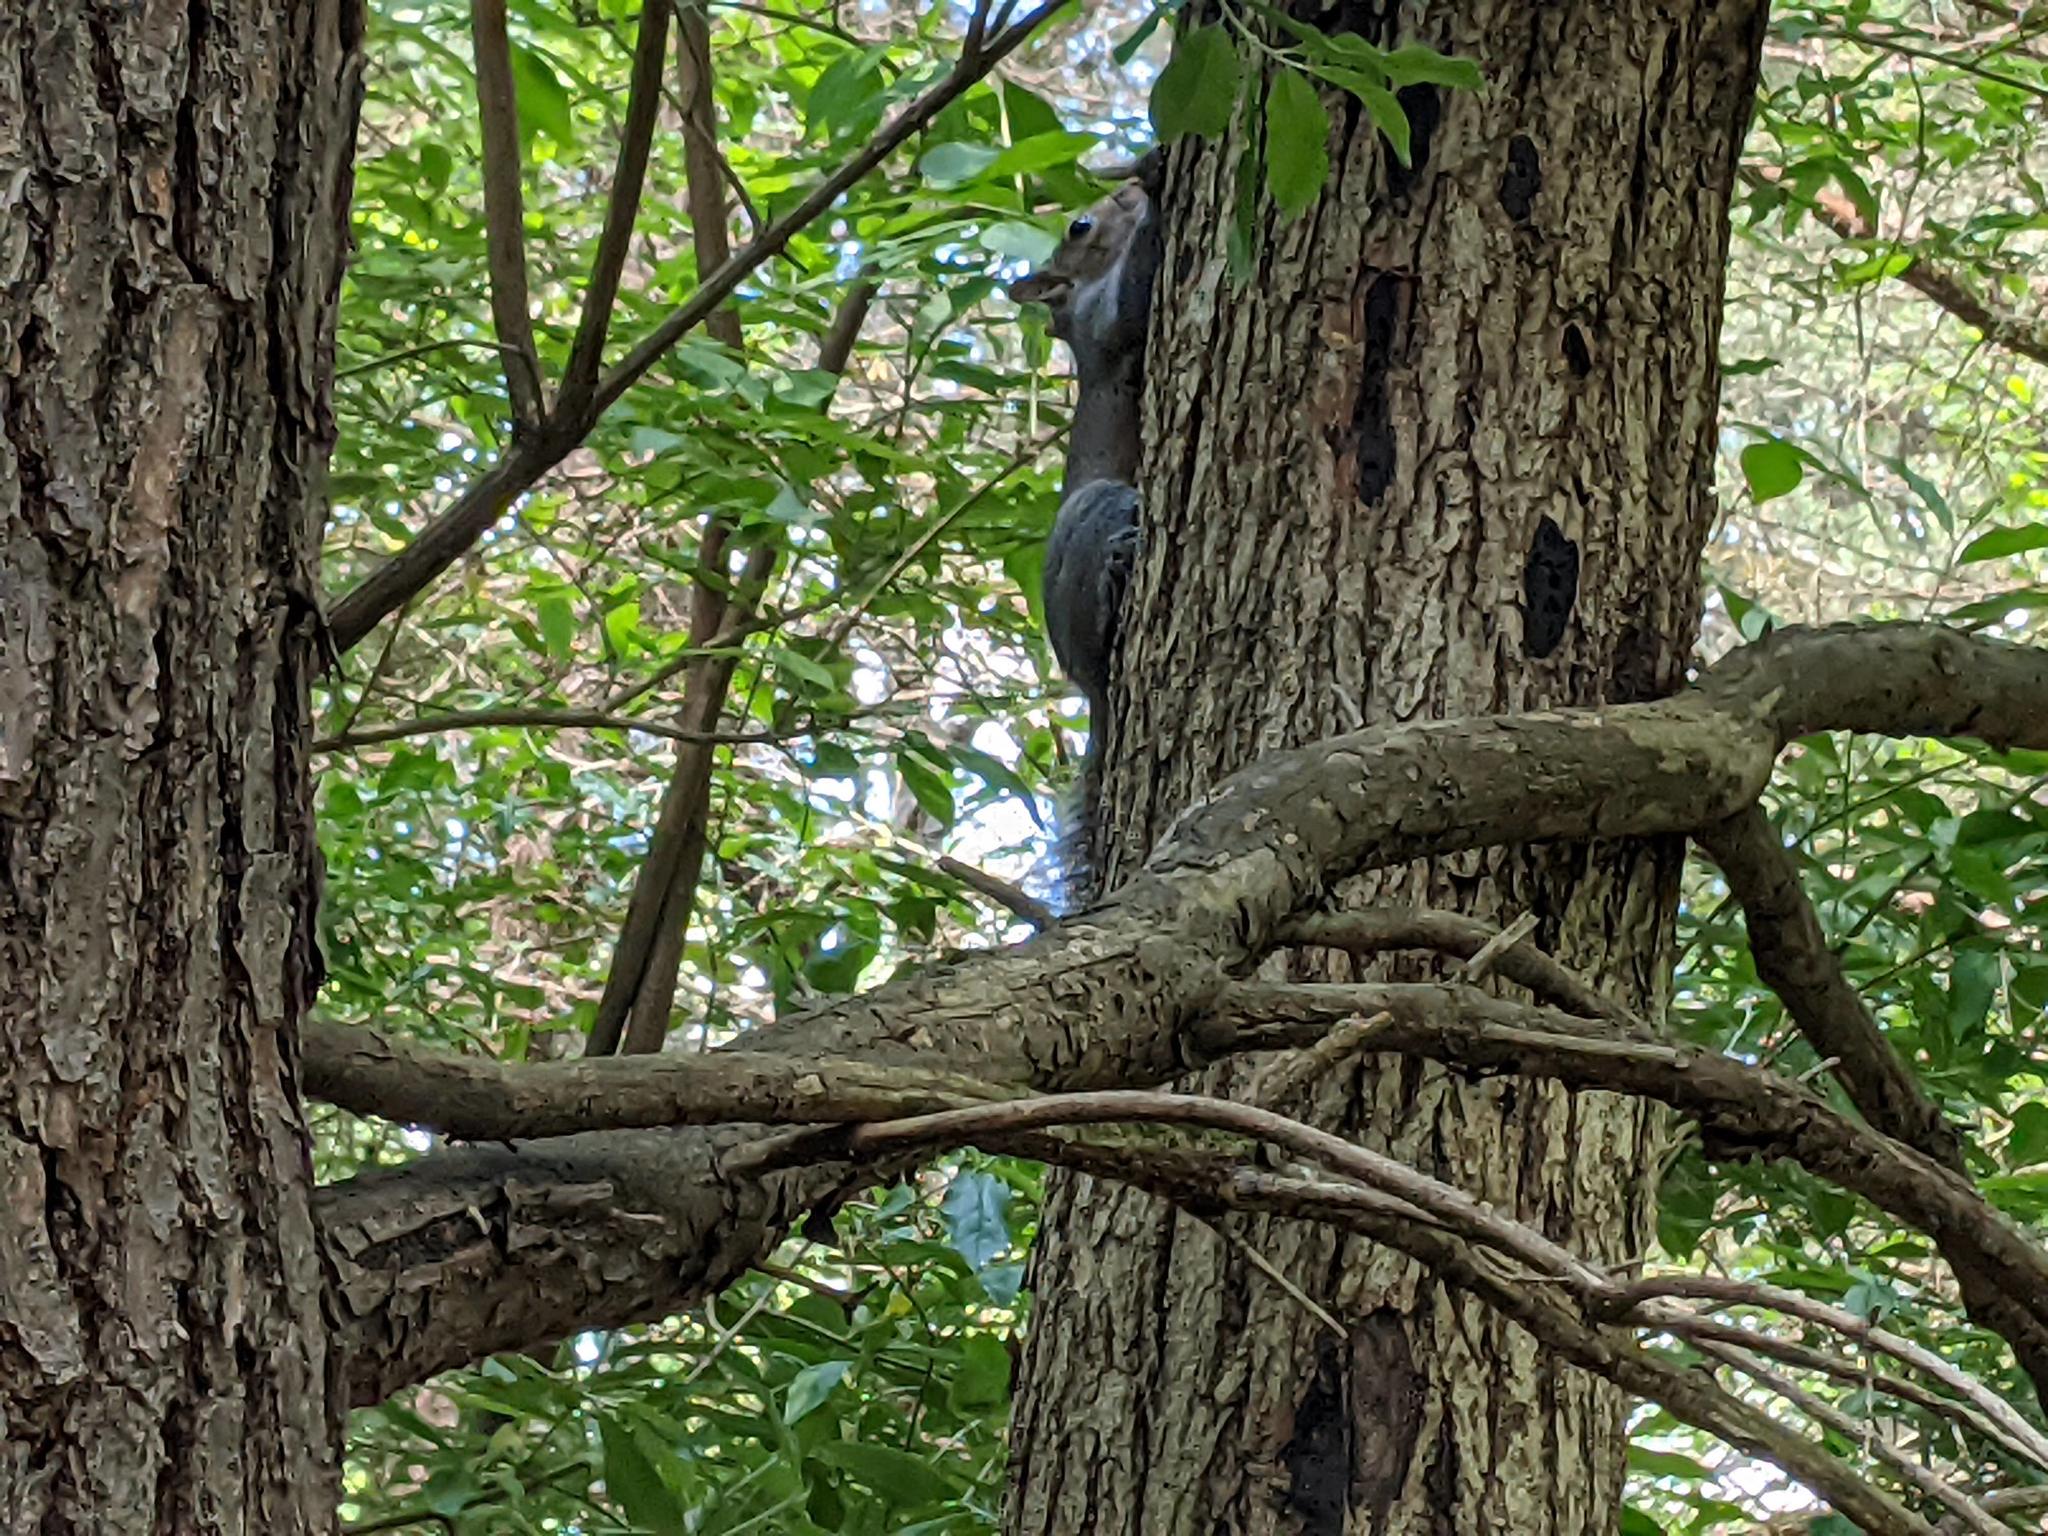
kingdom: Animalia
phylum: Chordata
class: Mammalia
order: Rodentia
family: Sciuridae
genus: Sciurus
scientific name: Sciurus carolinensis
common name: Eastern gray squirrel
